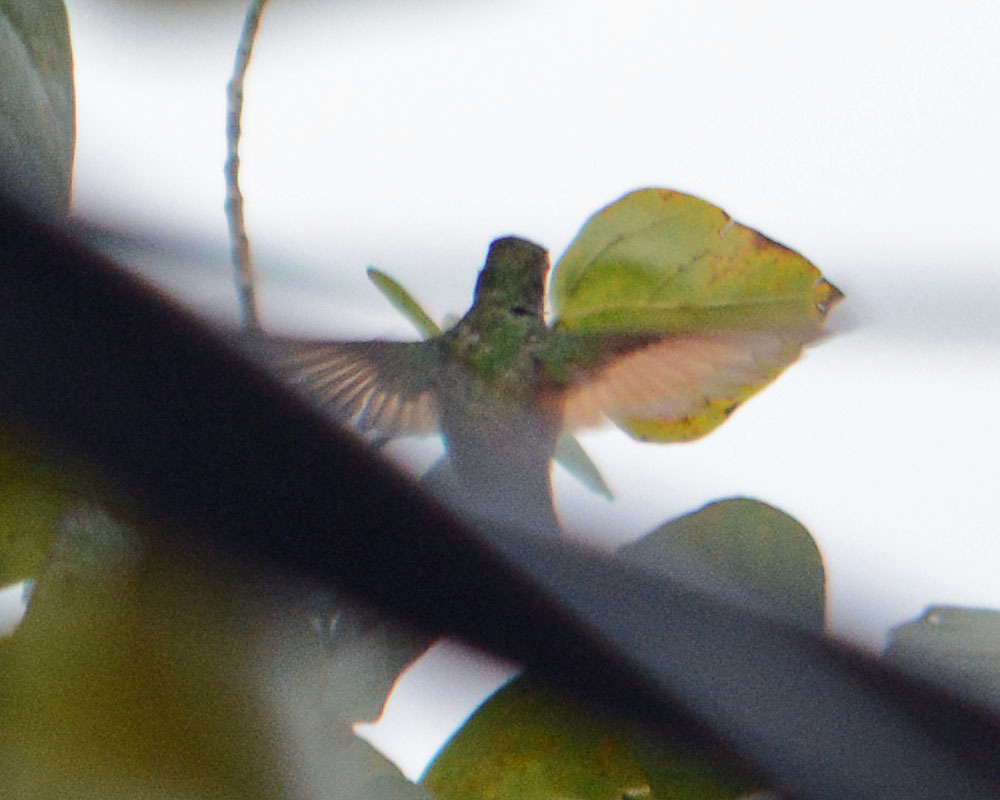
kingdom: Animalia
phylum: Chordata
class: Aves
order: Apodiformes
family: Trochilidae
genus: Saucerottia
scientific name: Saucerottia beryllina
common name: Berylline hummingbird
